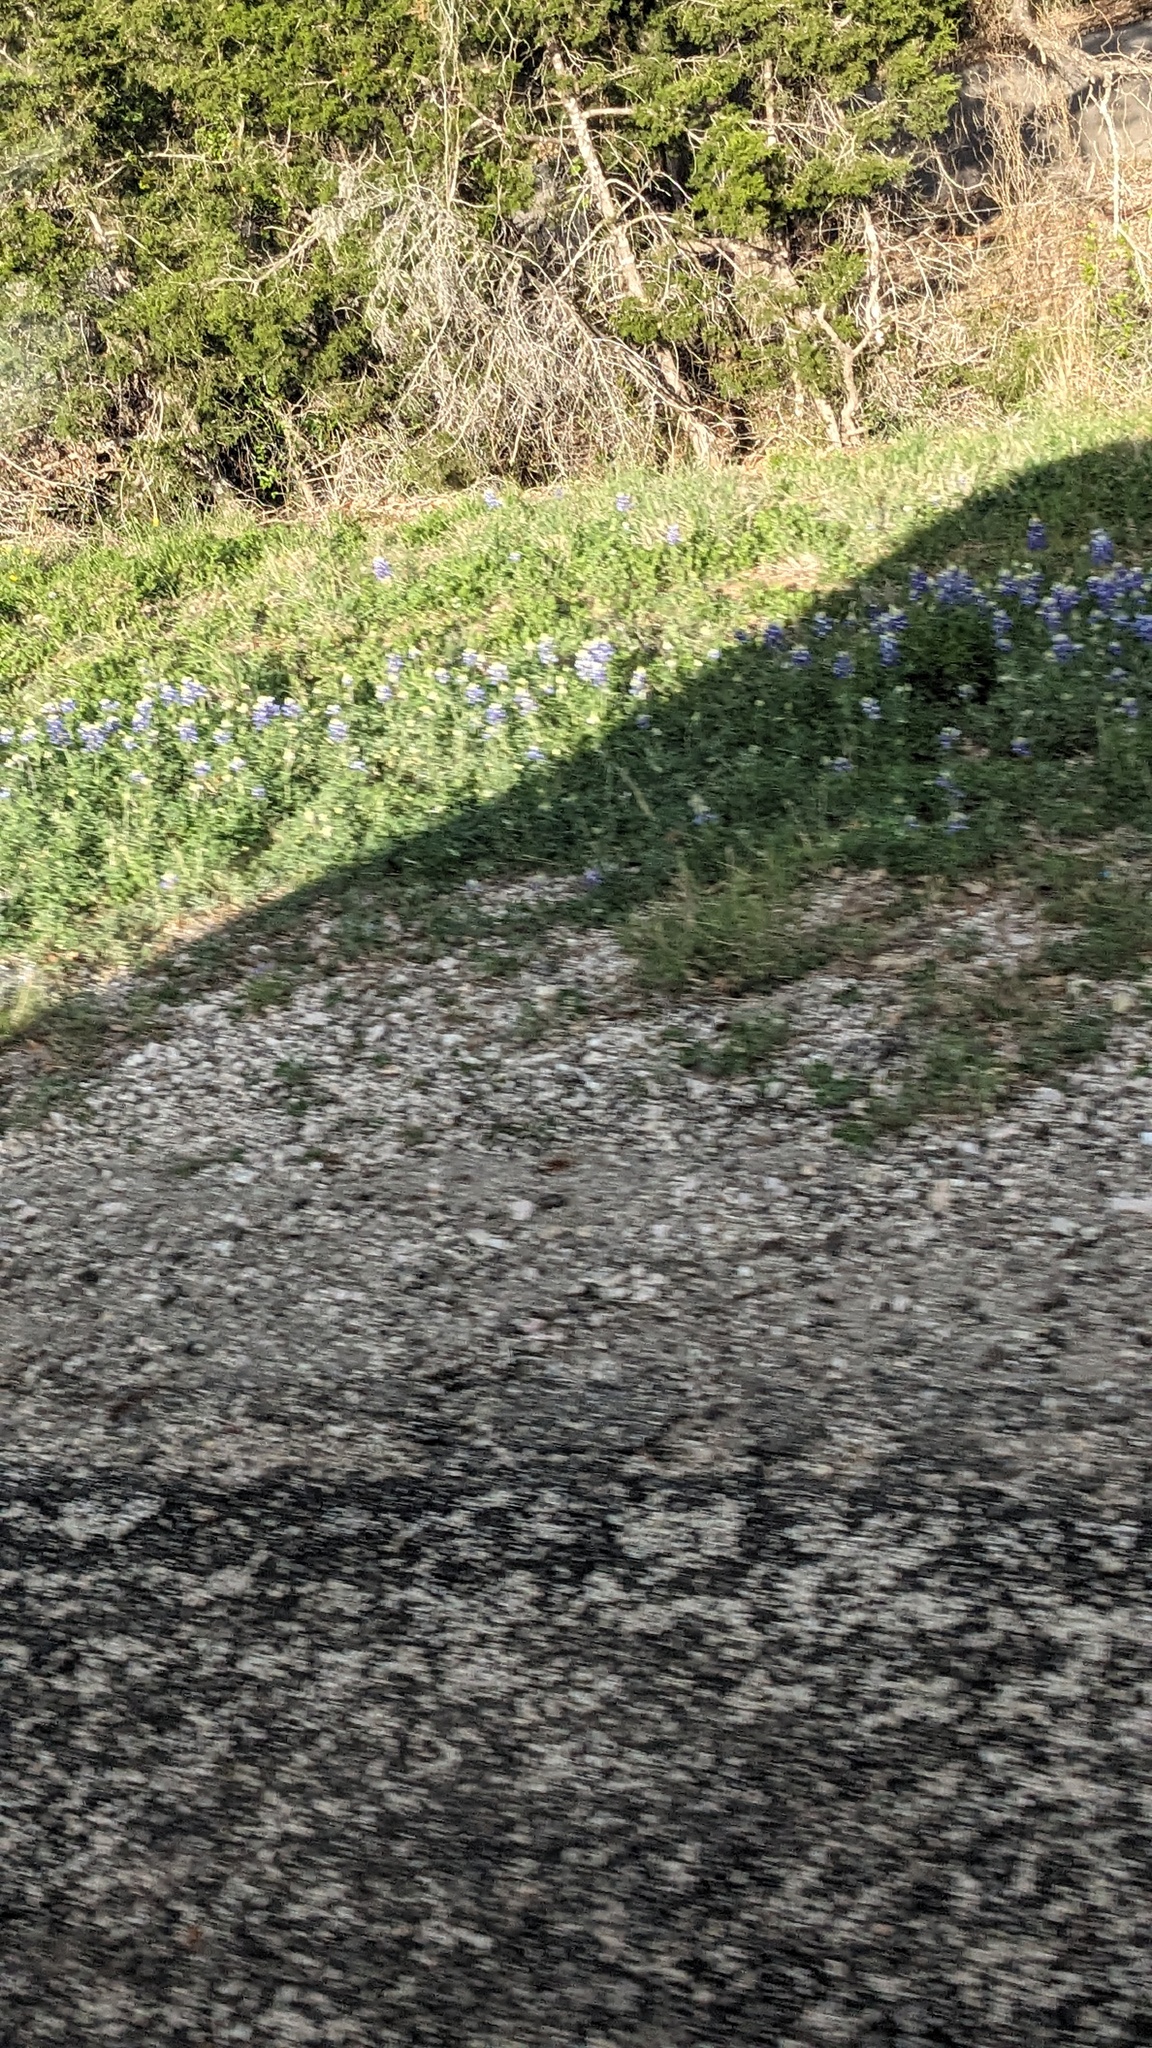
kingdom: Plantae
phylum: Tracheophyta
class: Magnoliopsida
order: Fabales
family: Fabaceae
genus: Lupinus
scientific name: Lupinus texensis
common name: Texas bluebonnet
